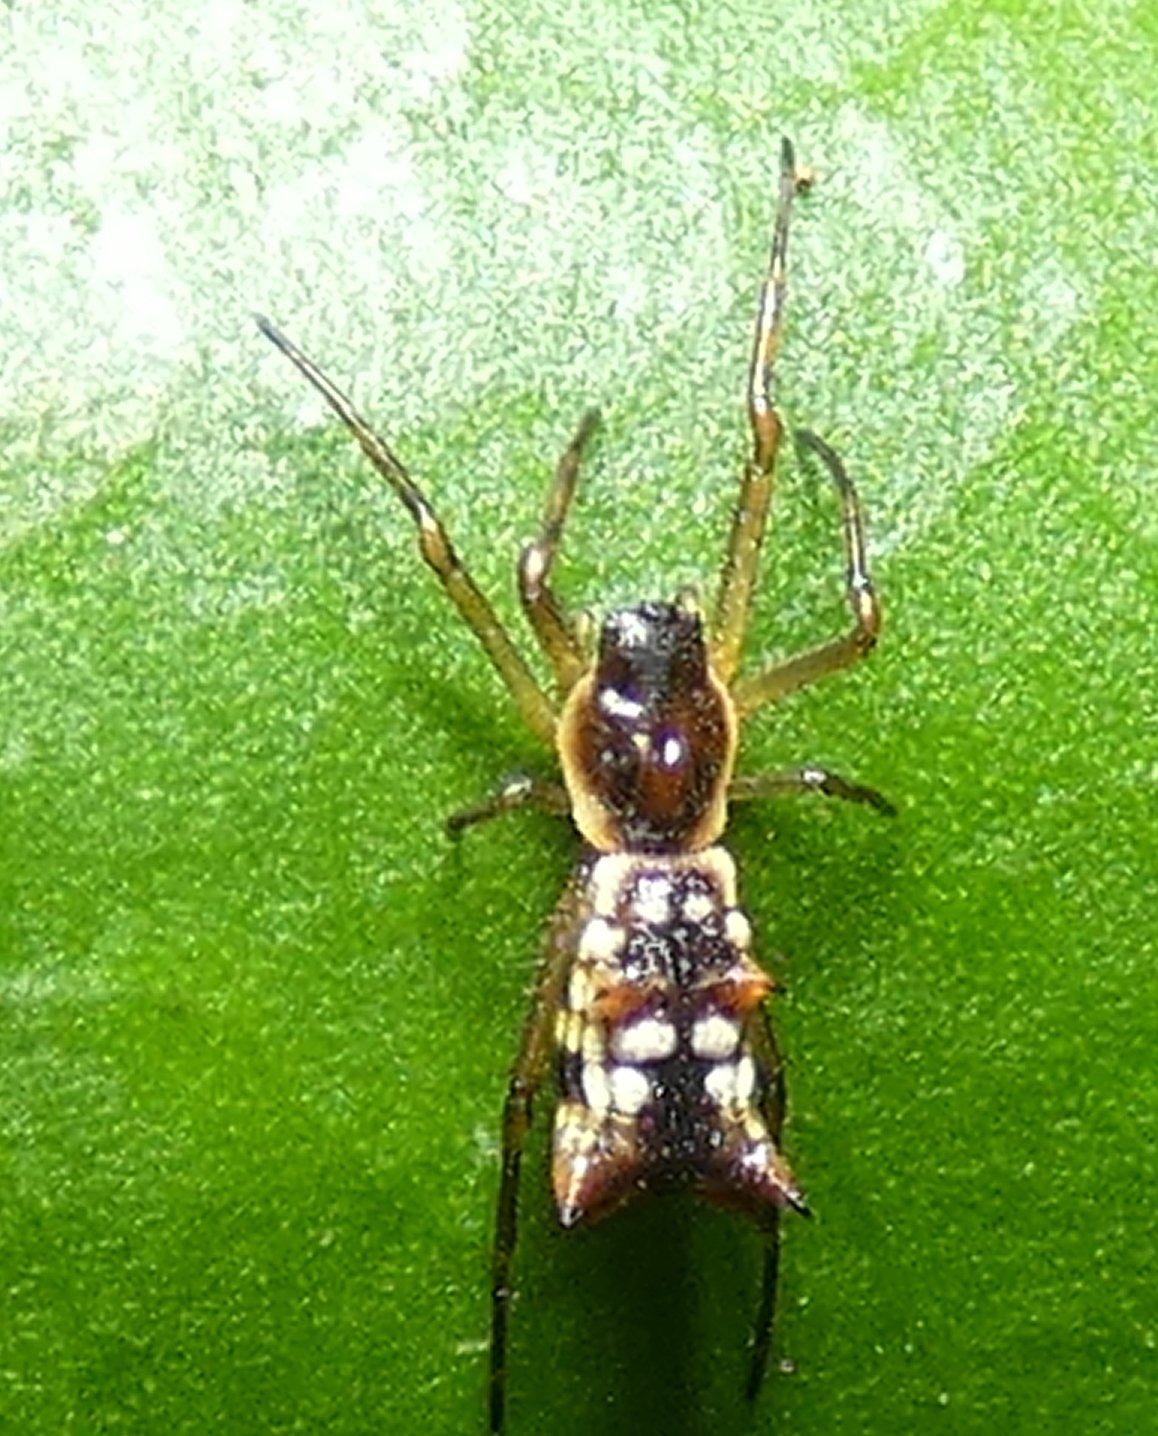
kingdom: Animalia
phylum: Arthropoda
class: Arachnida
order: Araneae
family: Araneidae
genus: Micrathena
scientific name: Micrathena fissispina
